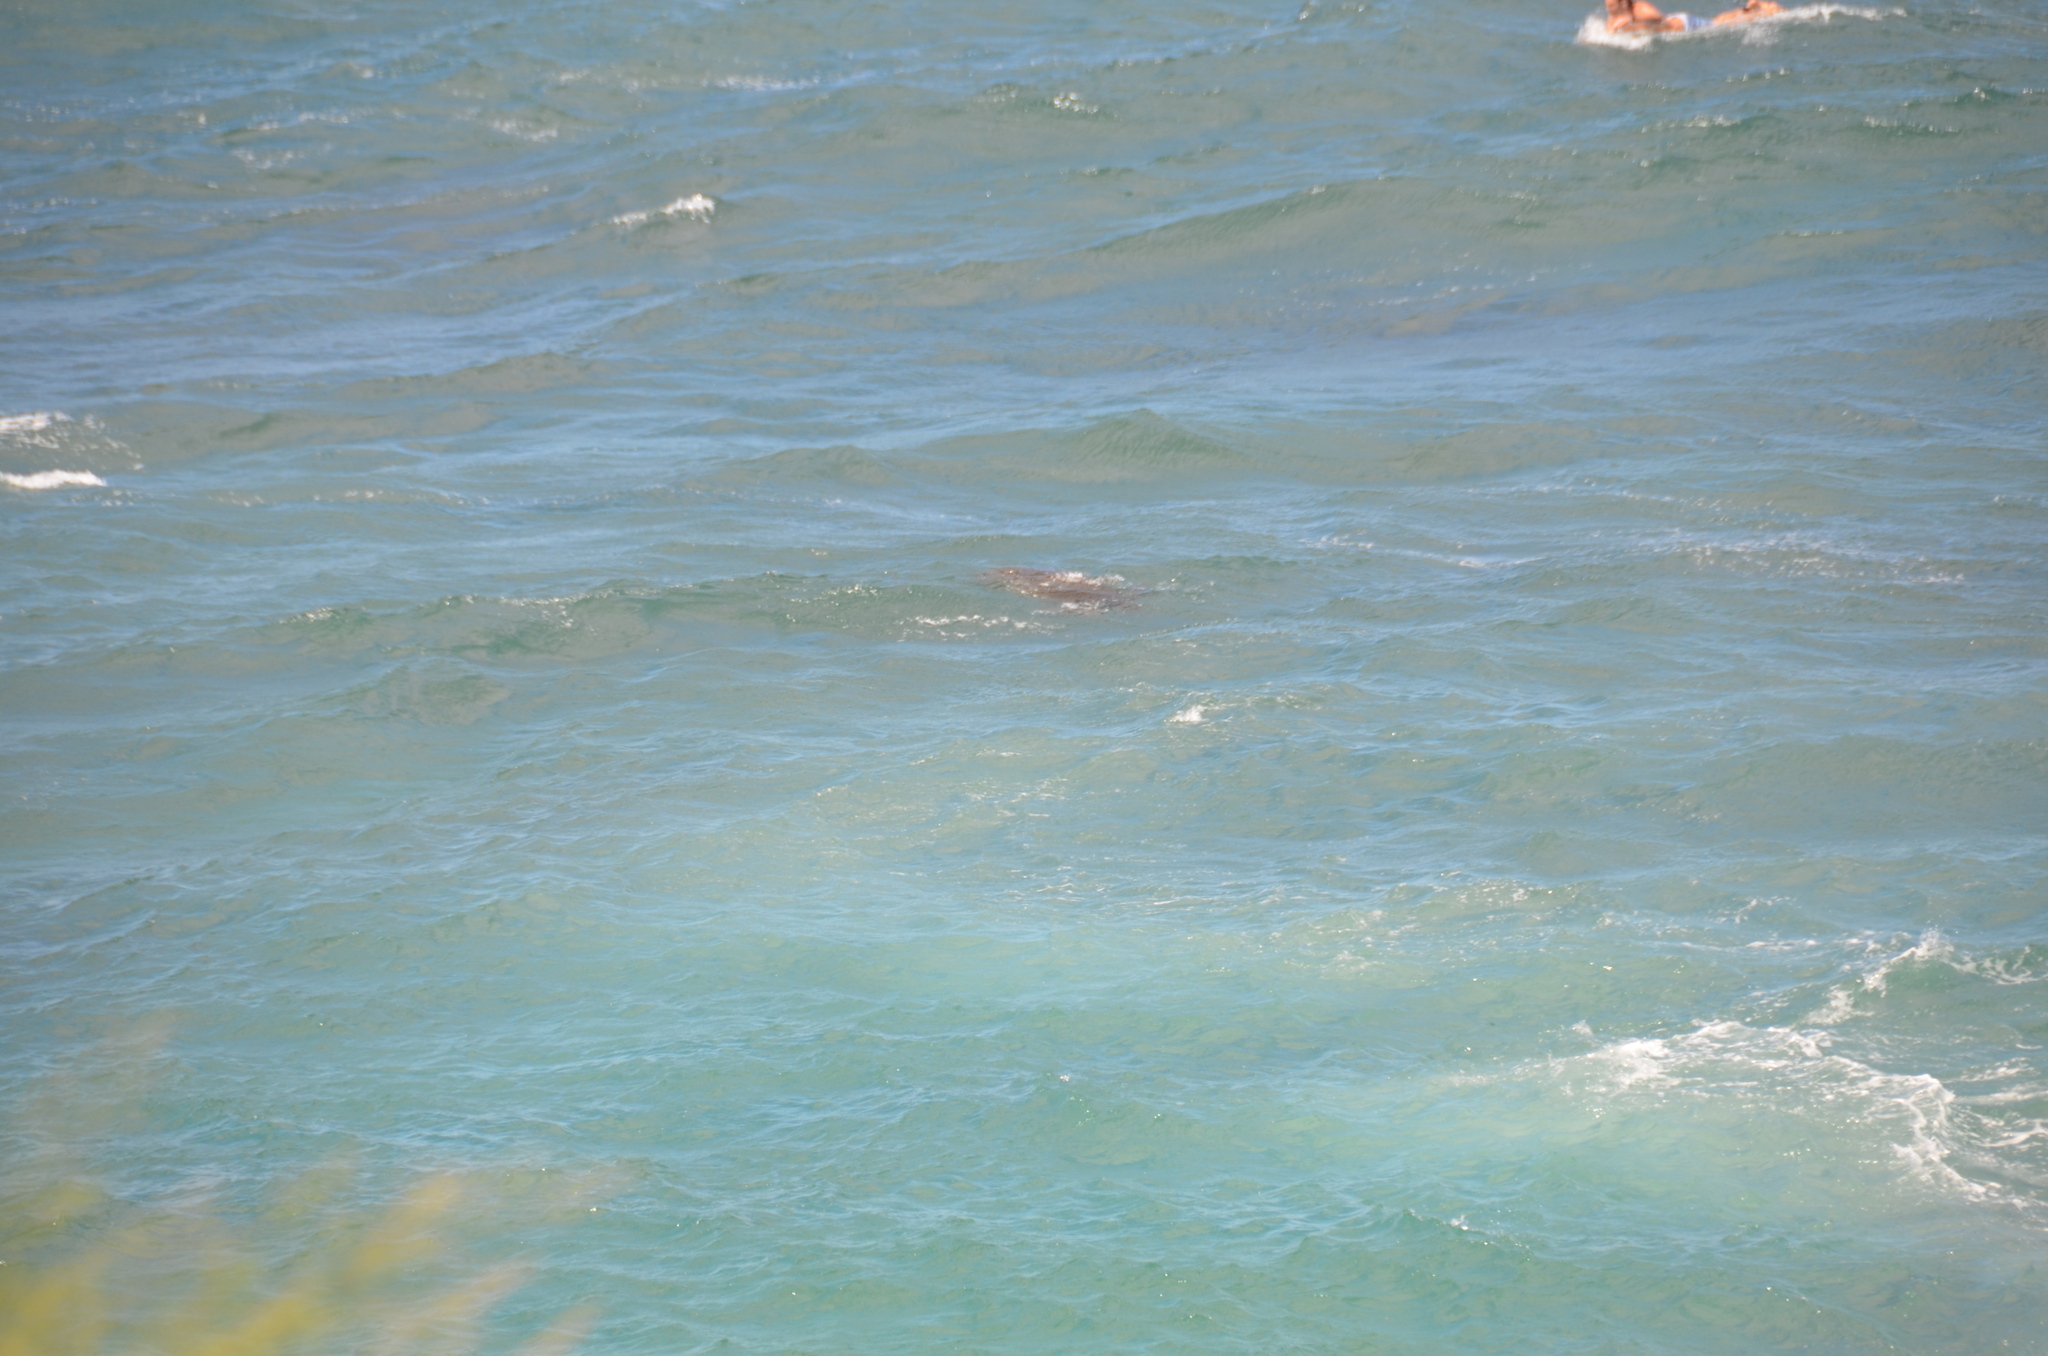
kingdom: Animalia
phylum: Chordata
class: Testudines
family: Cheloniidae
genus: Chelonia
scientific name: Chelonia mydas
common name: Green turtle
